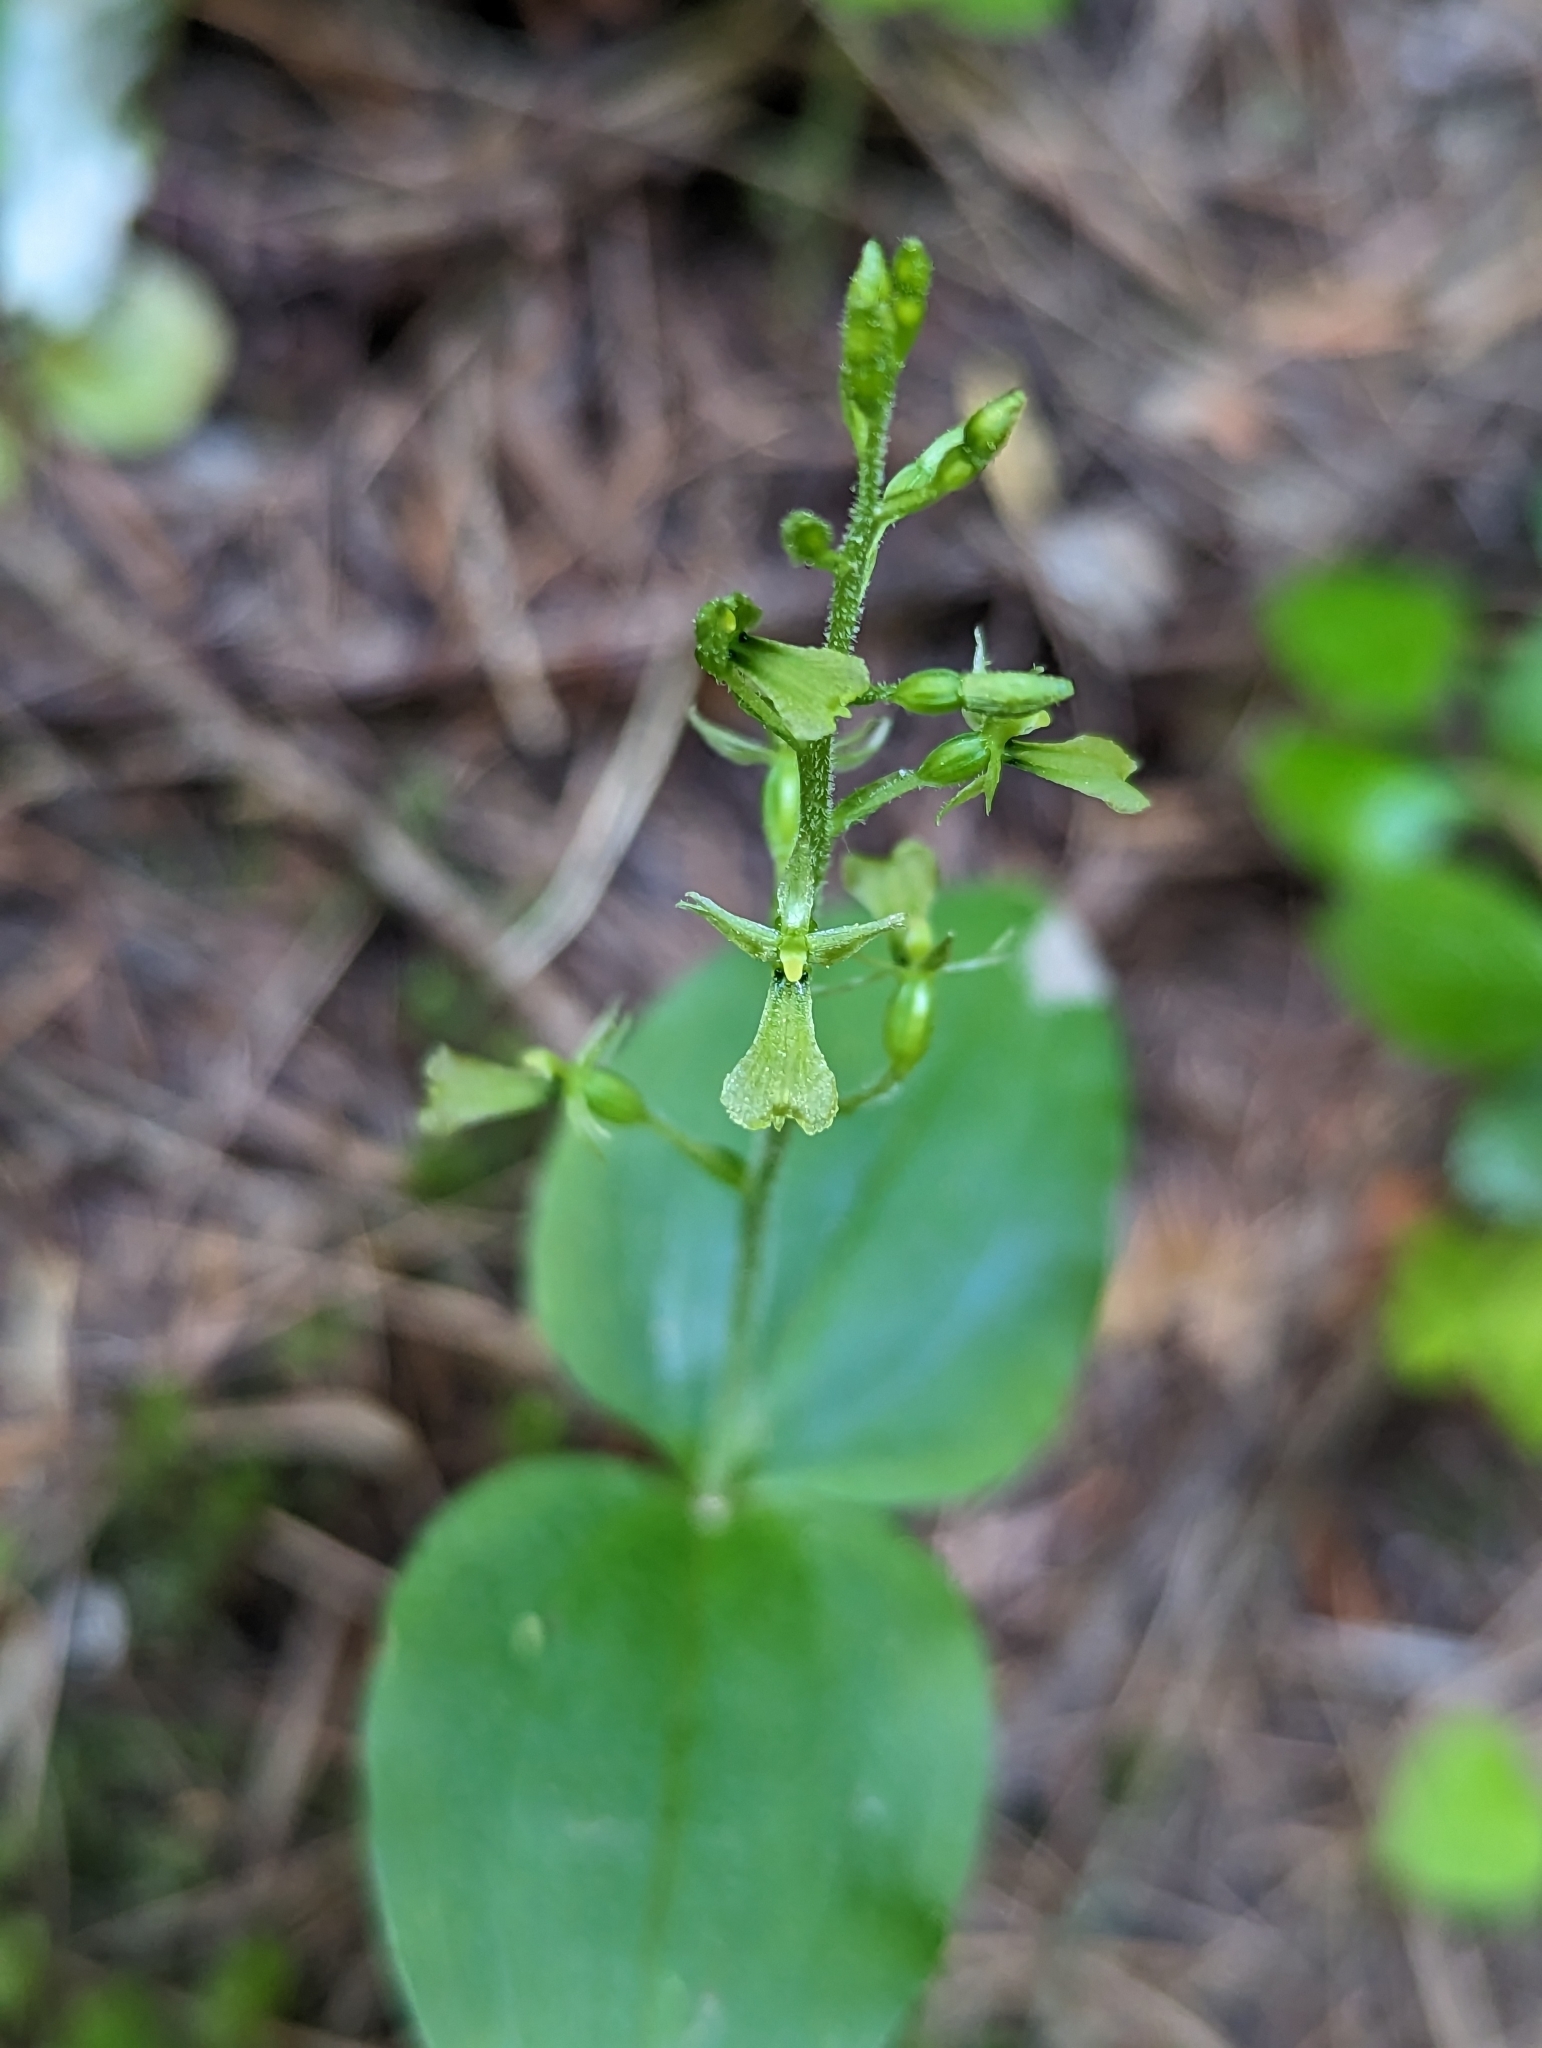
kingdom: Plantae
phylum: Tracheophyta
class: Liliopsida
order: Asparagales
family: Orchidaceae
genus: Neottia
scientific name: Neottia banksiana
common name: Northwestern twayblade
